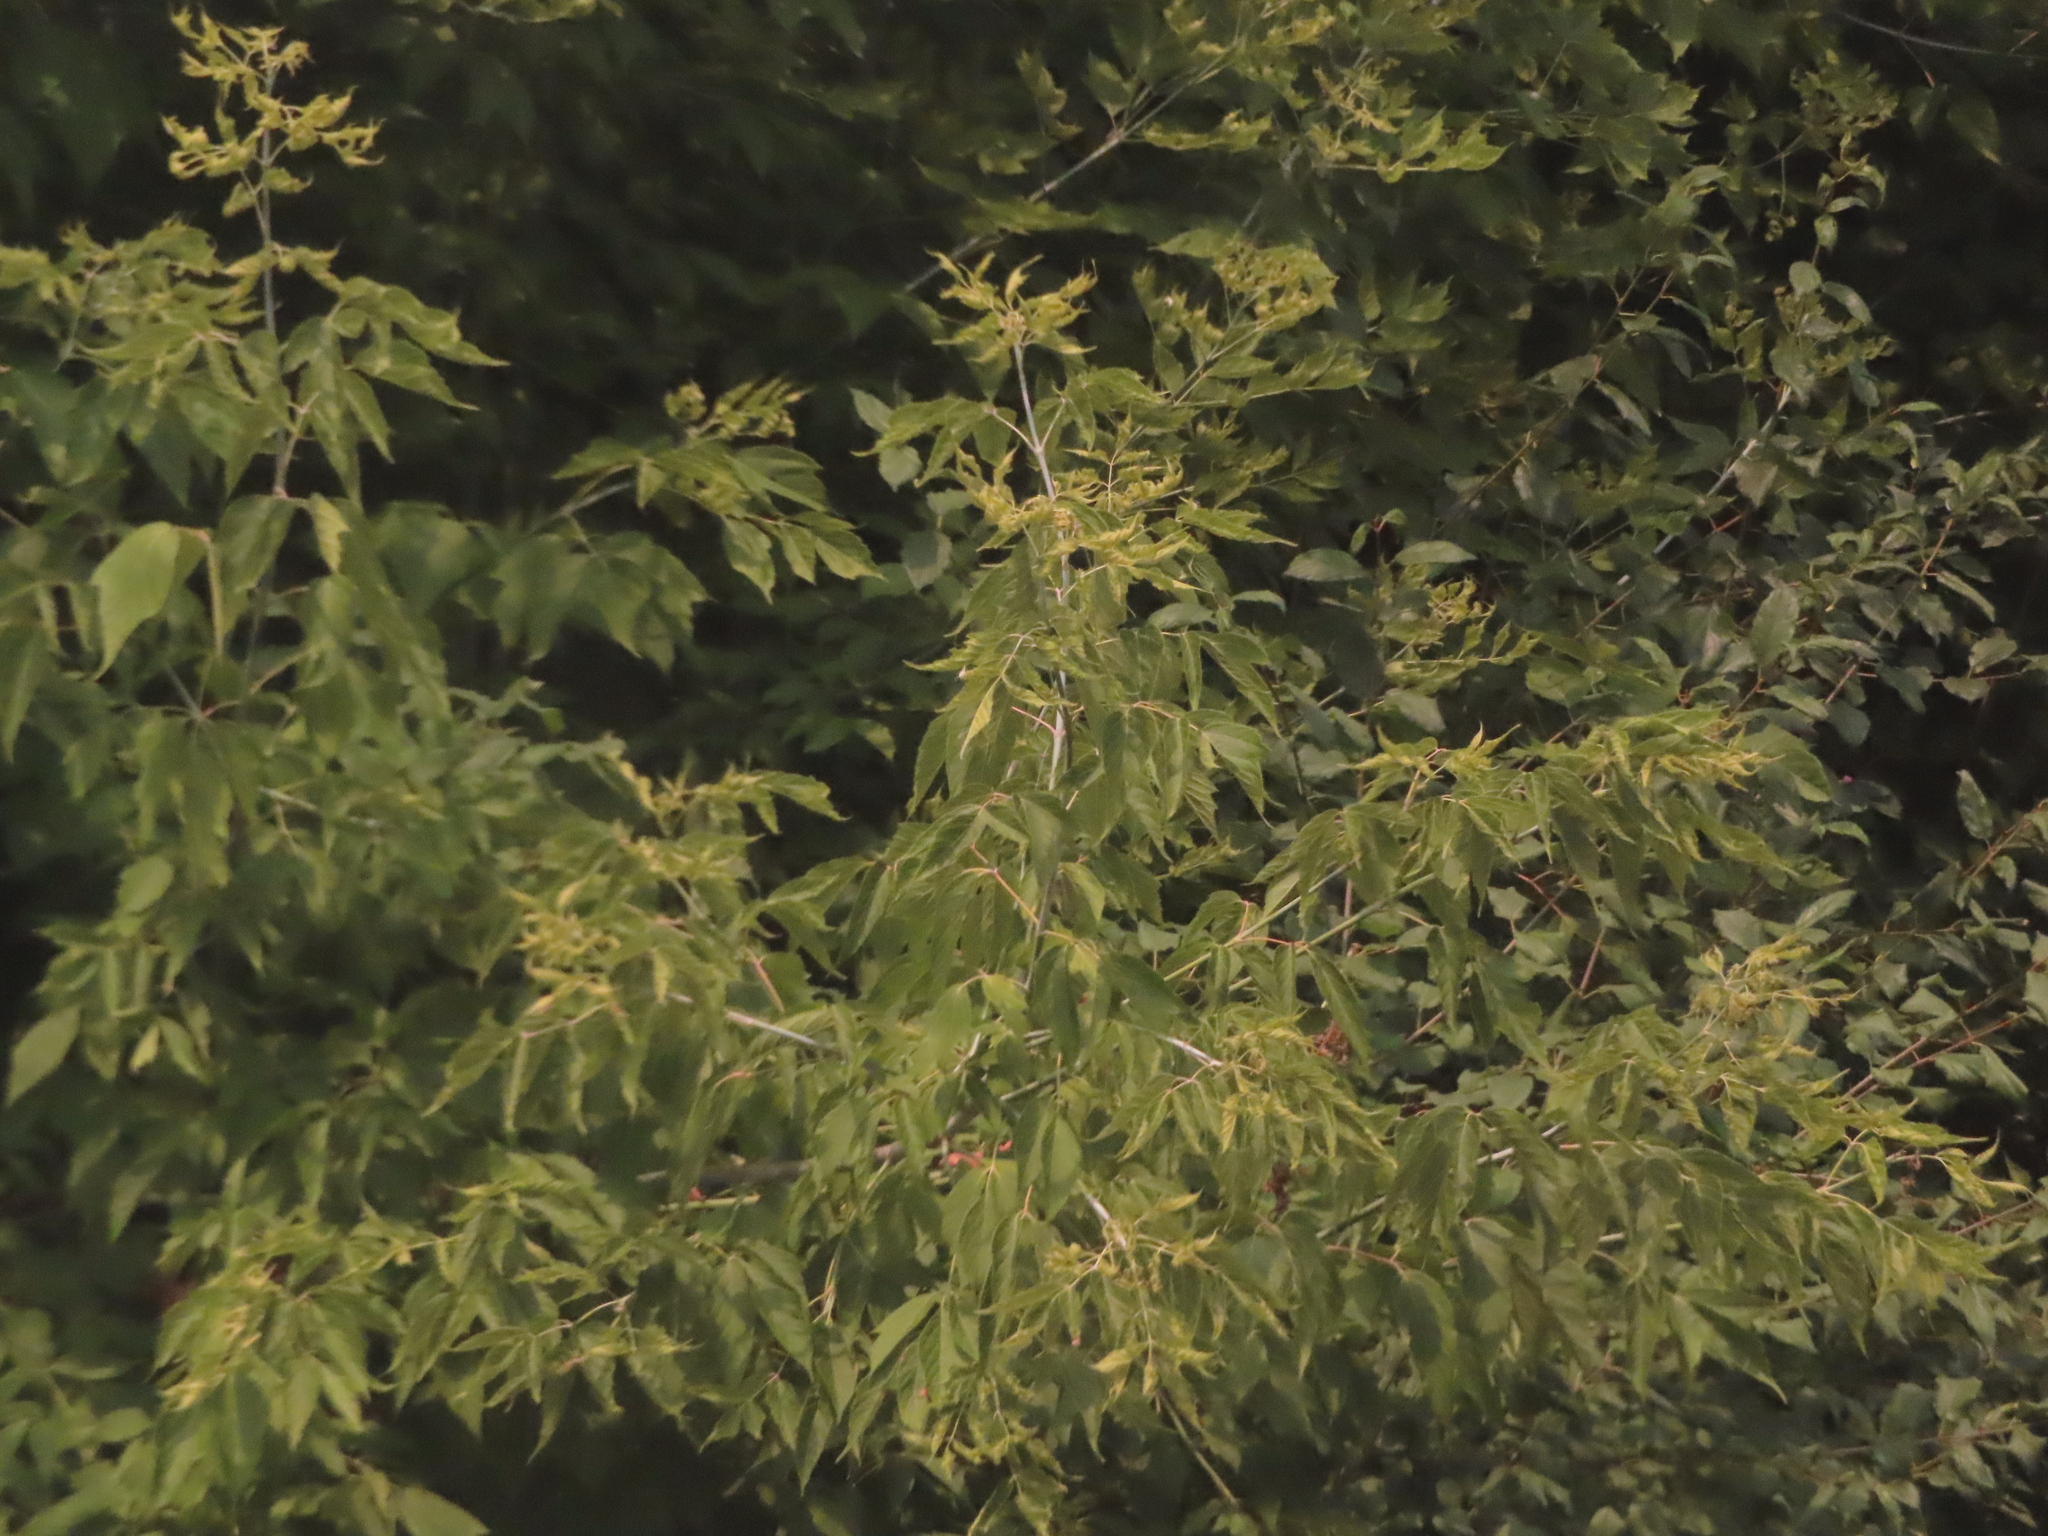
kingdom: Plantae
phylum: Tracheophyta
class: Magnoliopsida
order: Sapindales
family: Sapindaceae
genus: Acer
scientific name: Acer negundo
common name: Ashleaf maple
